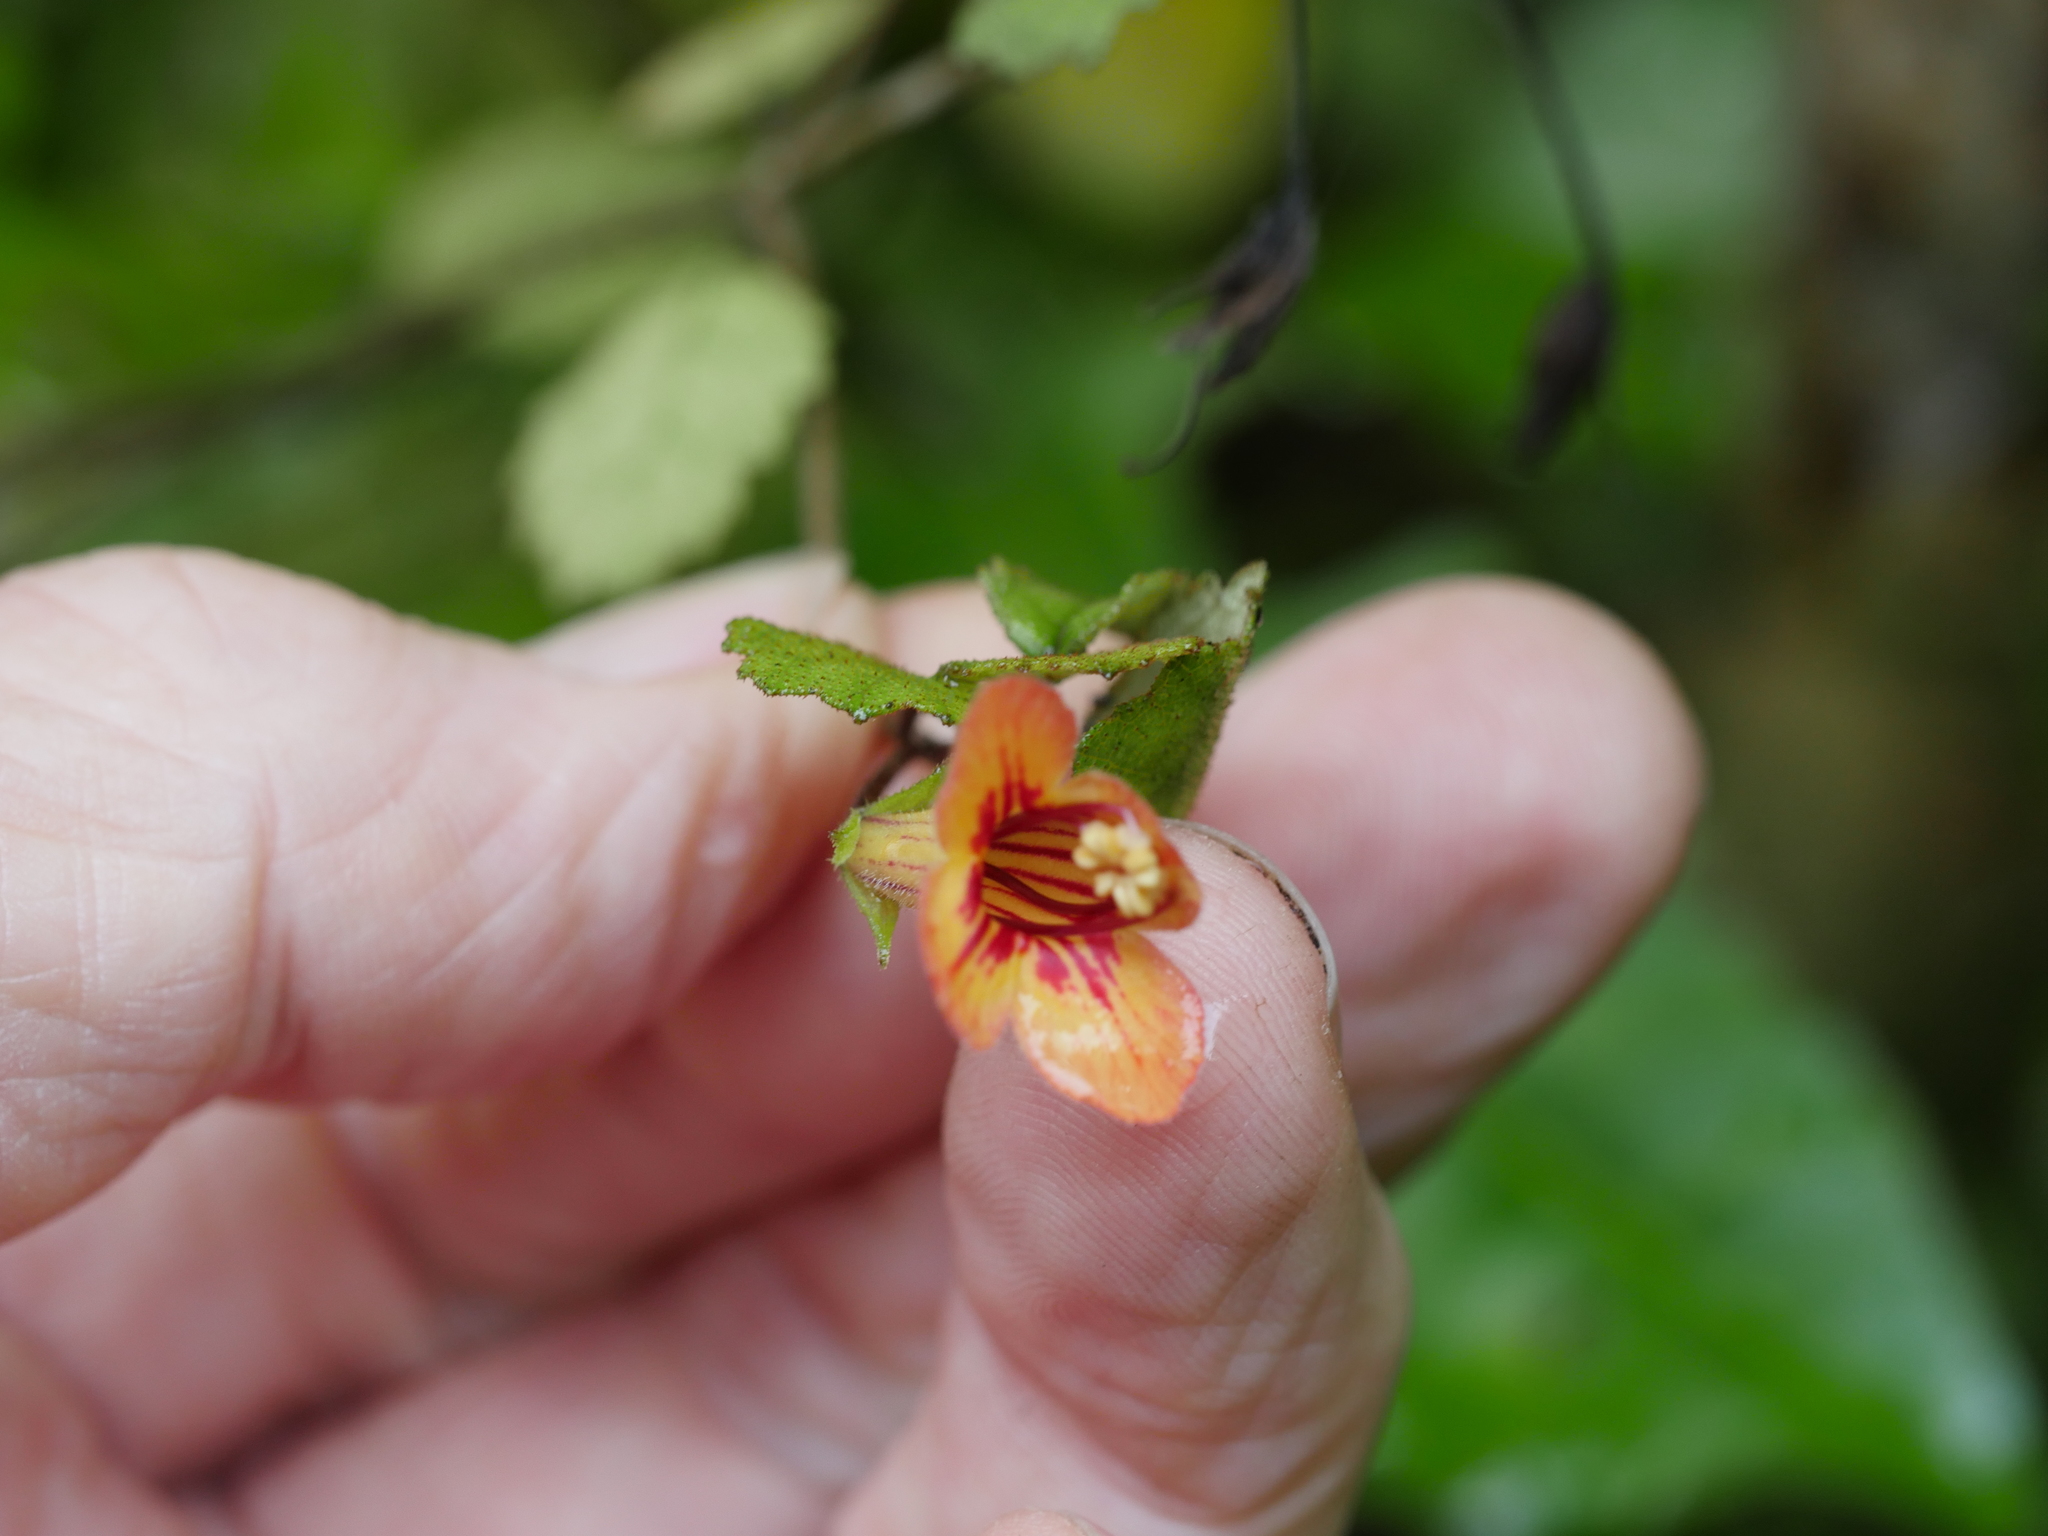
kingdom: Plantae
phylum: Tracheophyta
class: Magnoliopsida
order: Lamiales
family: Gesneriaceae
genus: Rhabdothamnus
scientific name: Rhabdothamnus solandri
